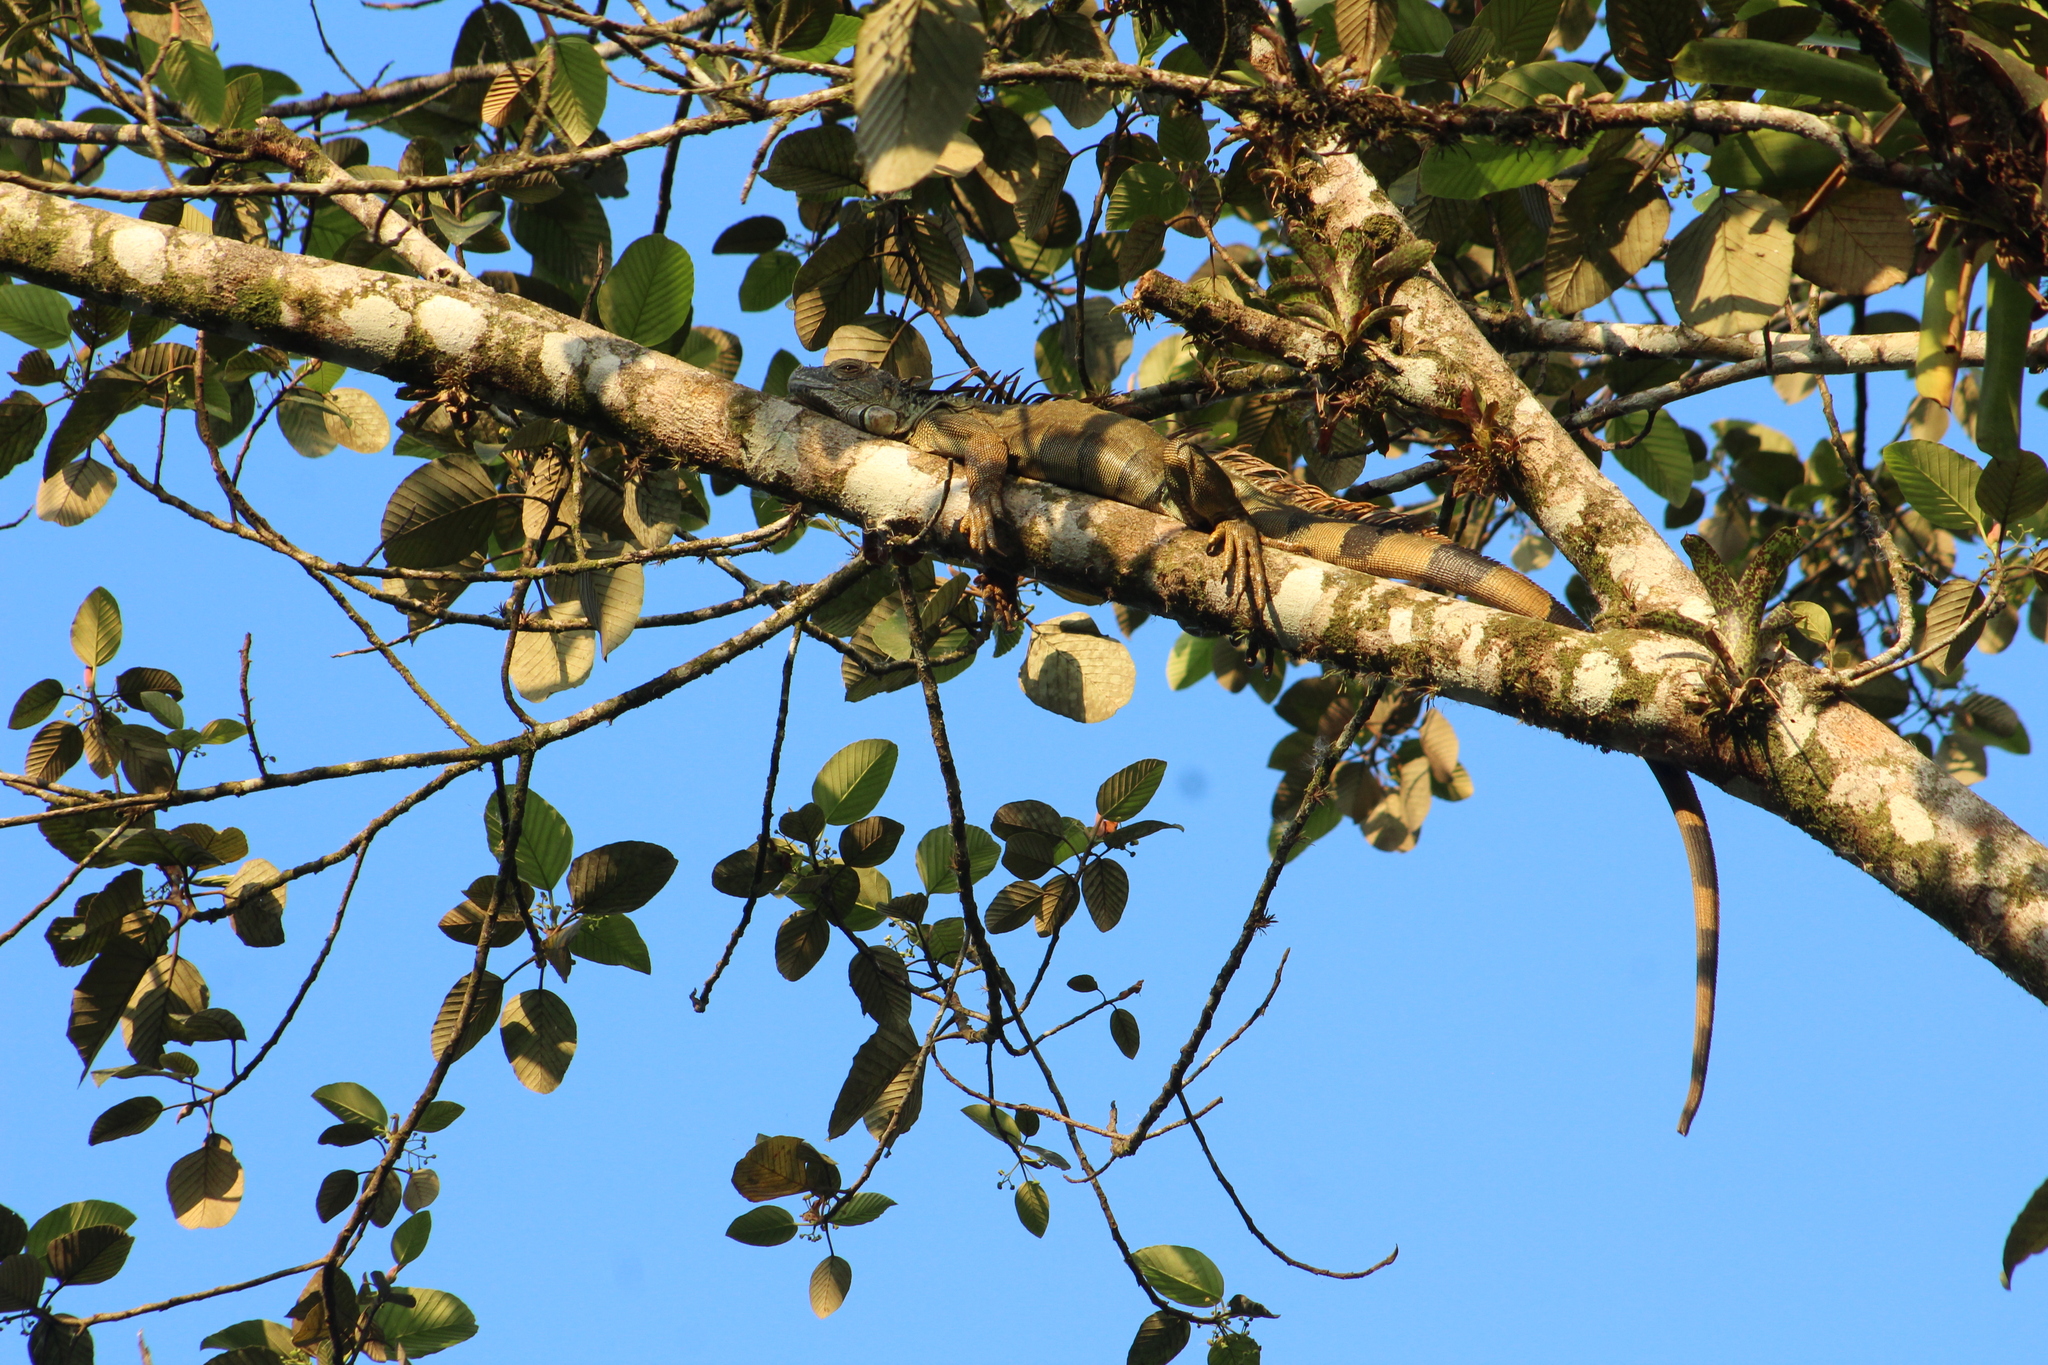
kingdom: Animalia
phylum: Chordata
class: Squamata
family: Iguanidae
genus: Iguana
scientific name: Iguana iguana
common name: Green iguana
